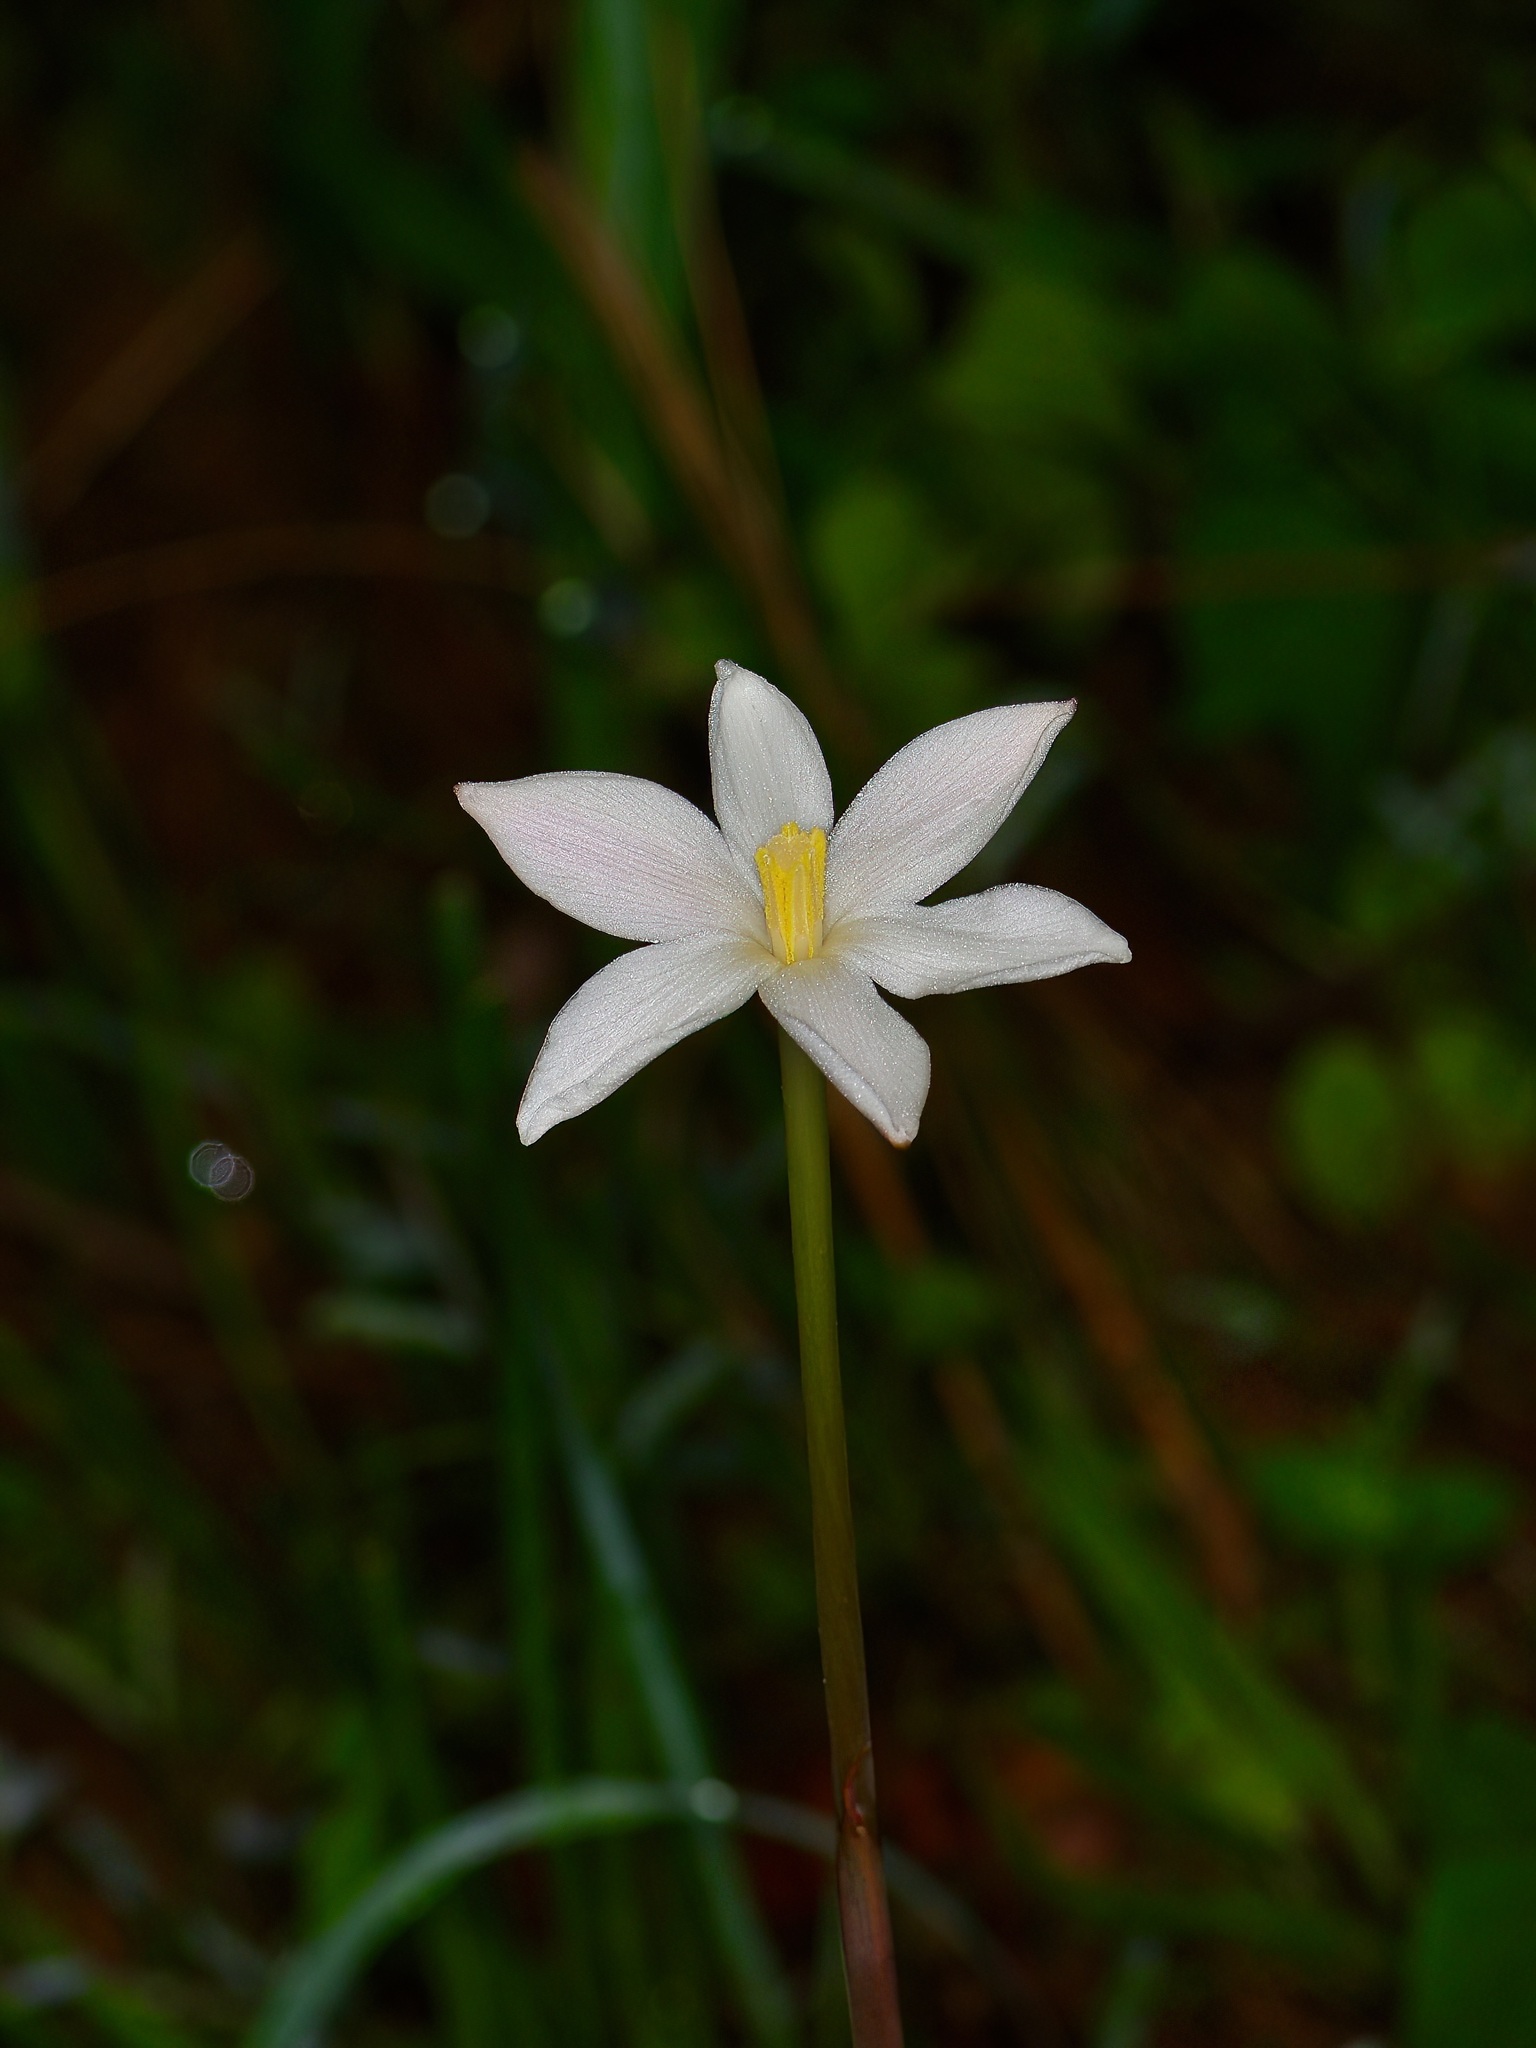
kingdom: Plantae
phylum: Tracheophyta
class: Liliopsida
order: Asparagales
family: Amaryllidaceae
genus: Zephyranthes
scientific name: Zephyranthes chlorosolen
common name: Evening rain-lily
